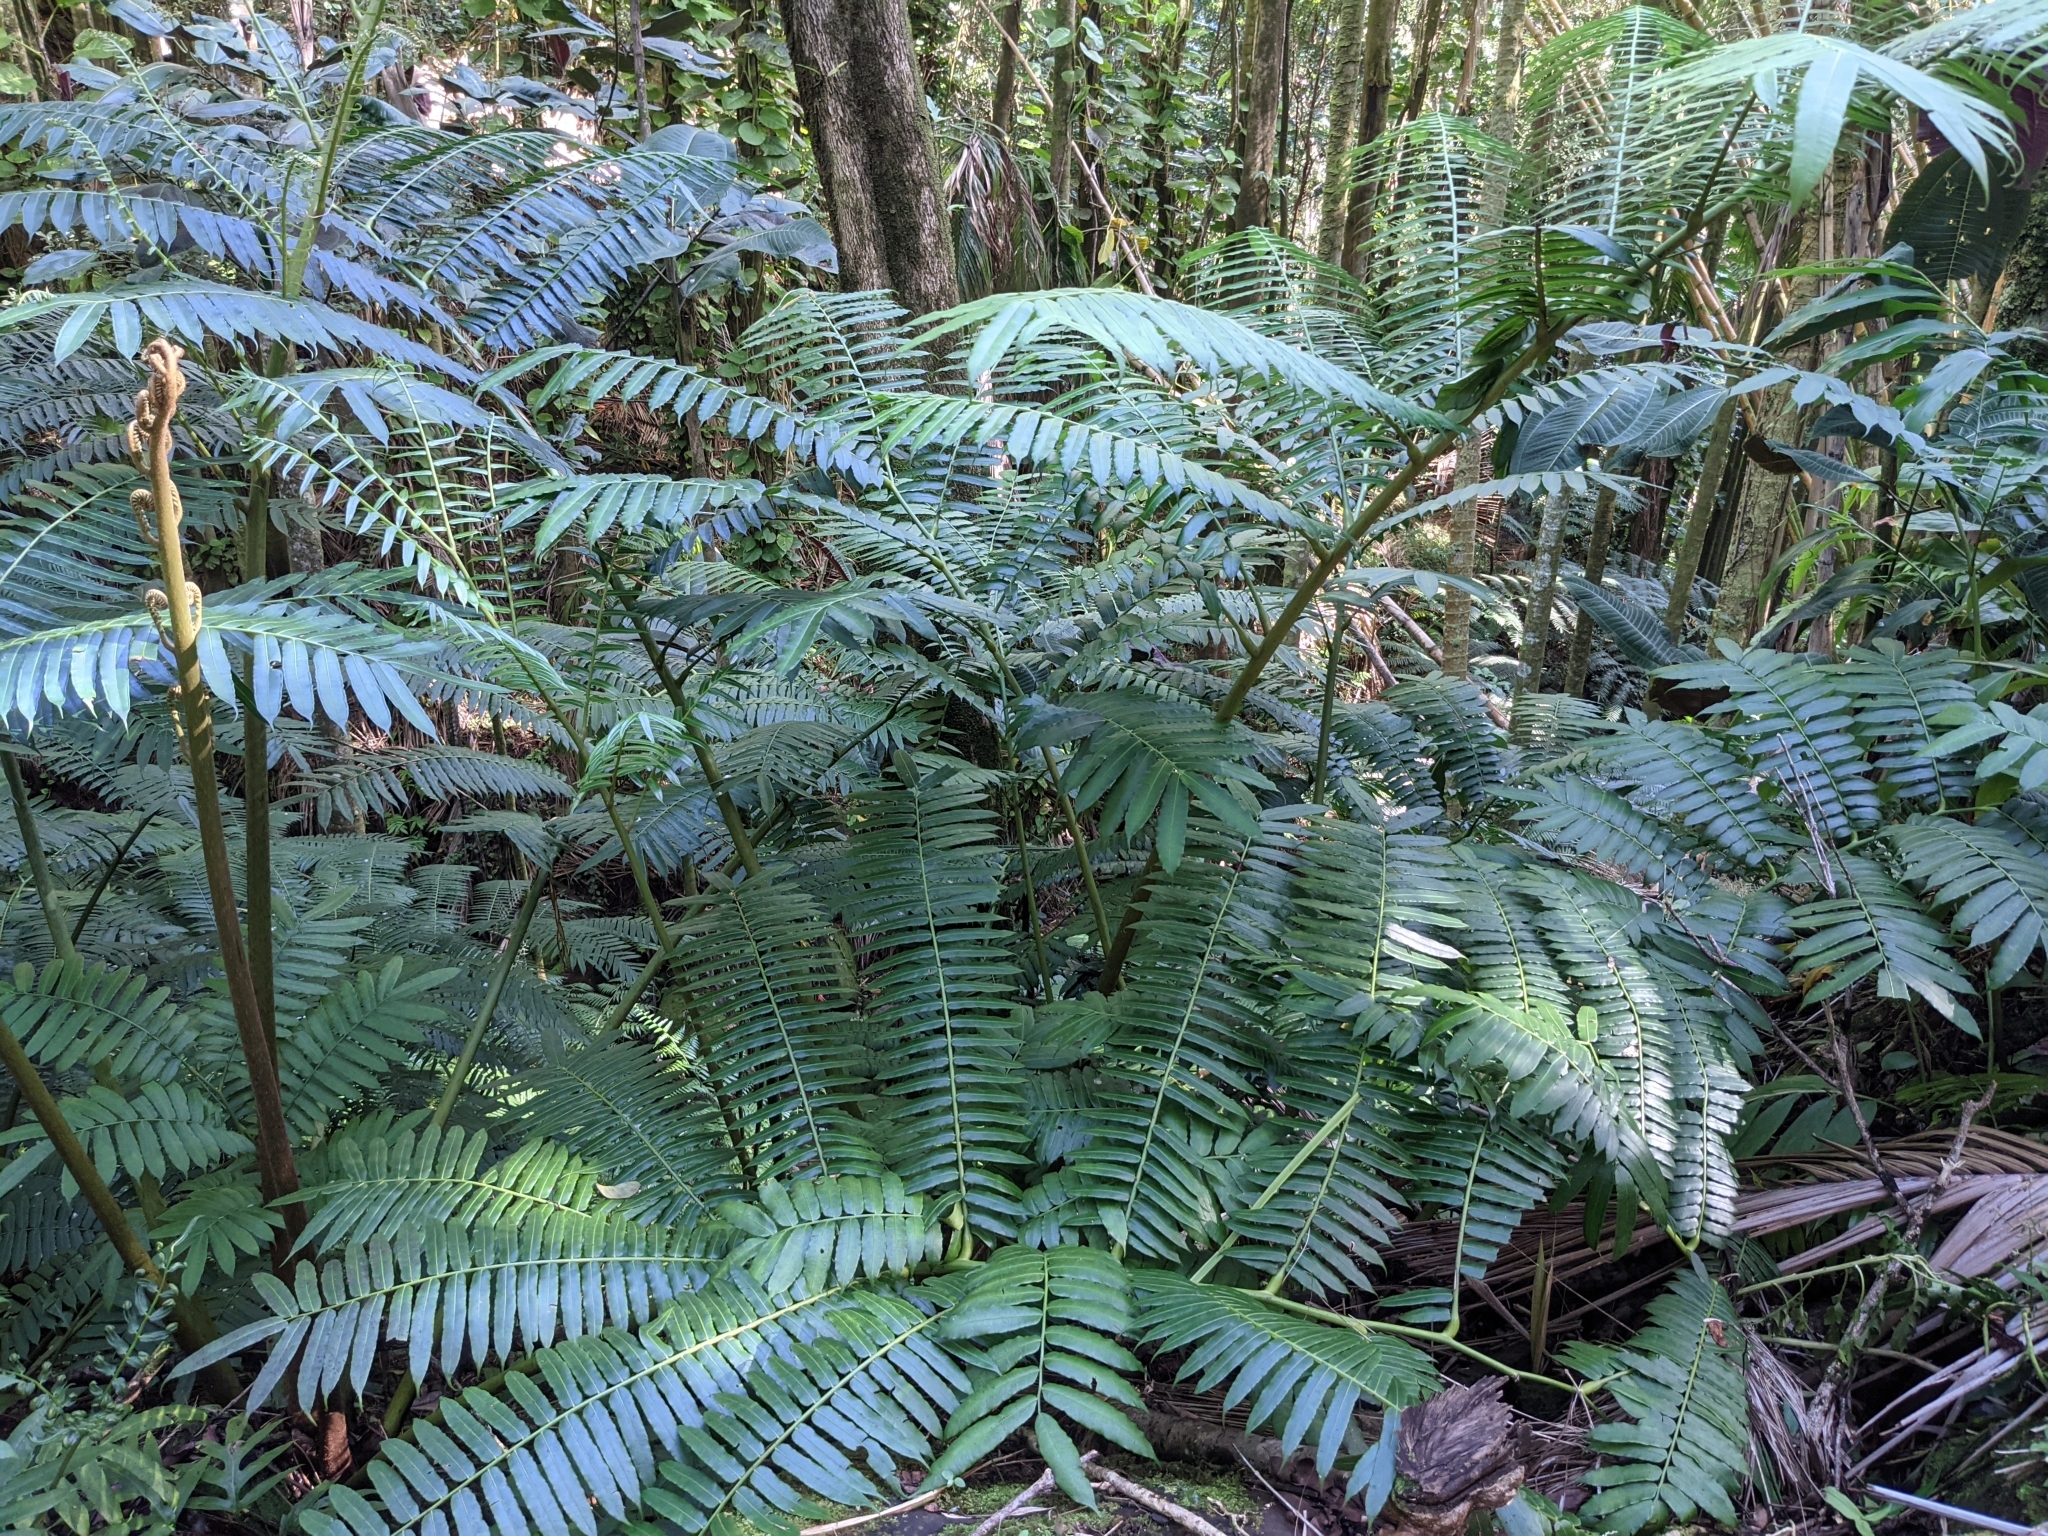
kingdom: Plantae
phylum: Tracheophyta
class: Polypodiopsida
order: Marattiales
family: Marattiaceae
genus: Angiopteris
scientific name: Angiopteris evecta
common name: Mule's-foot fern
